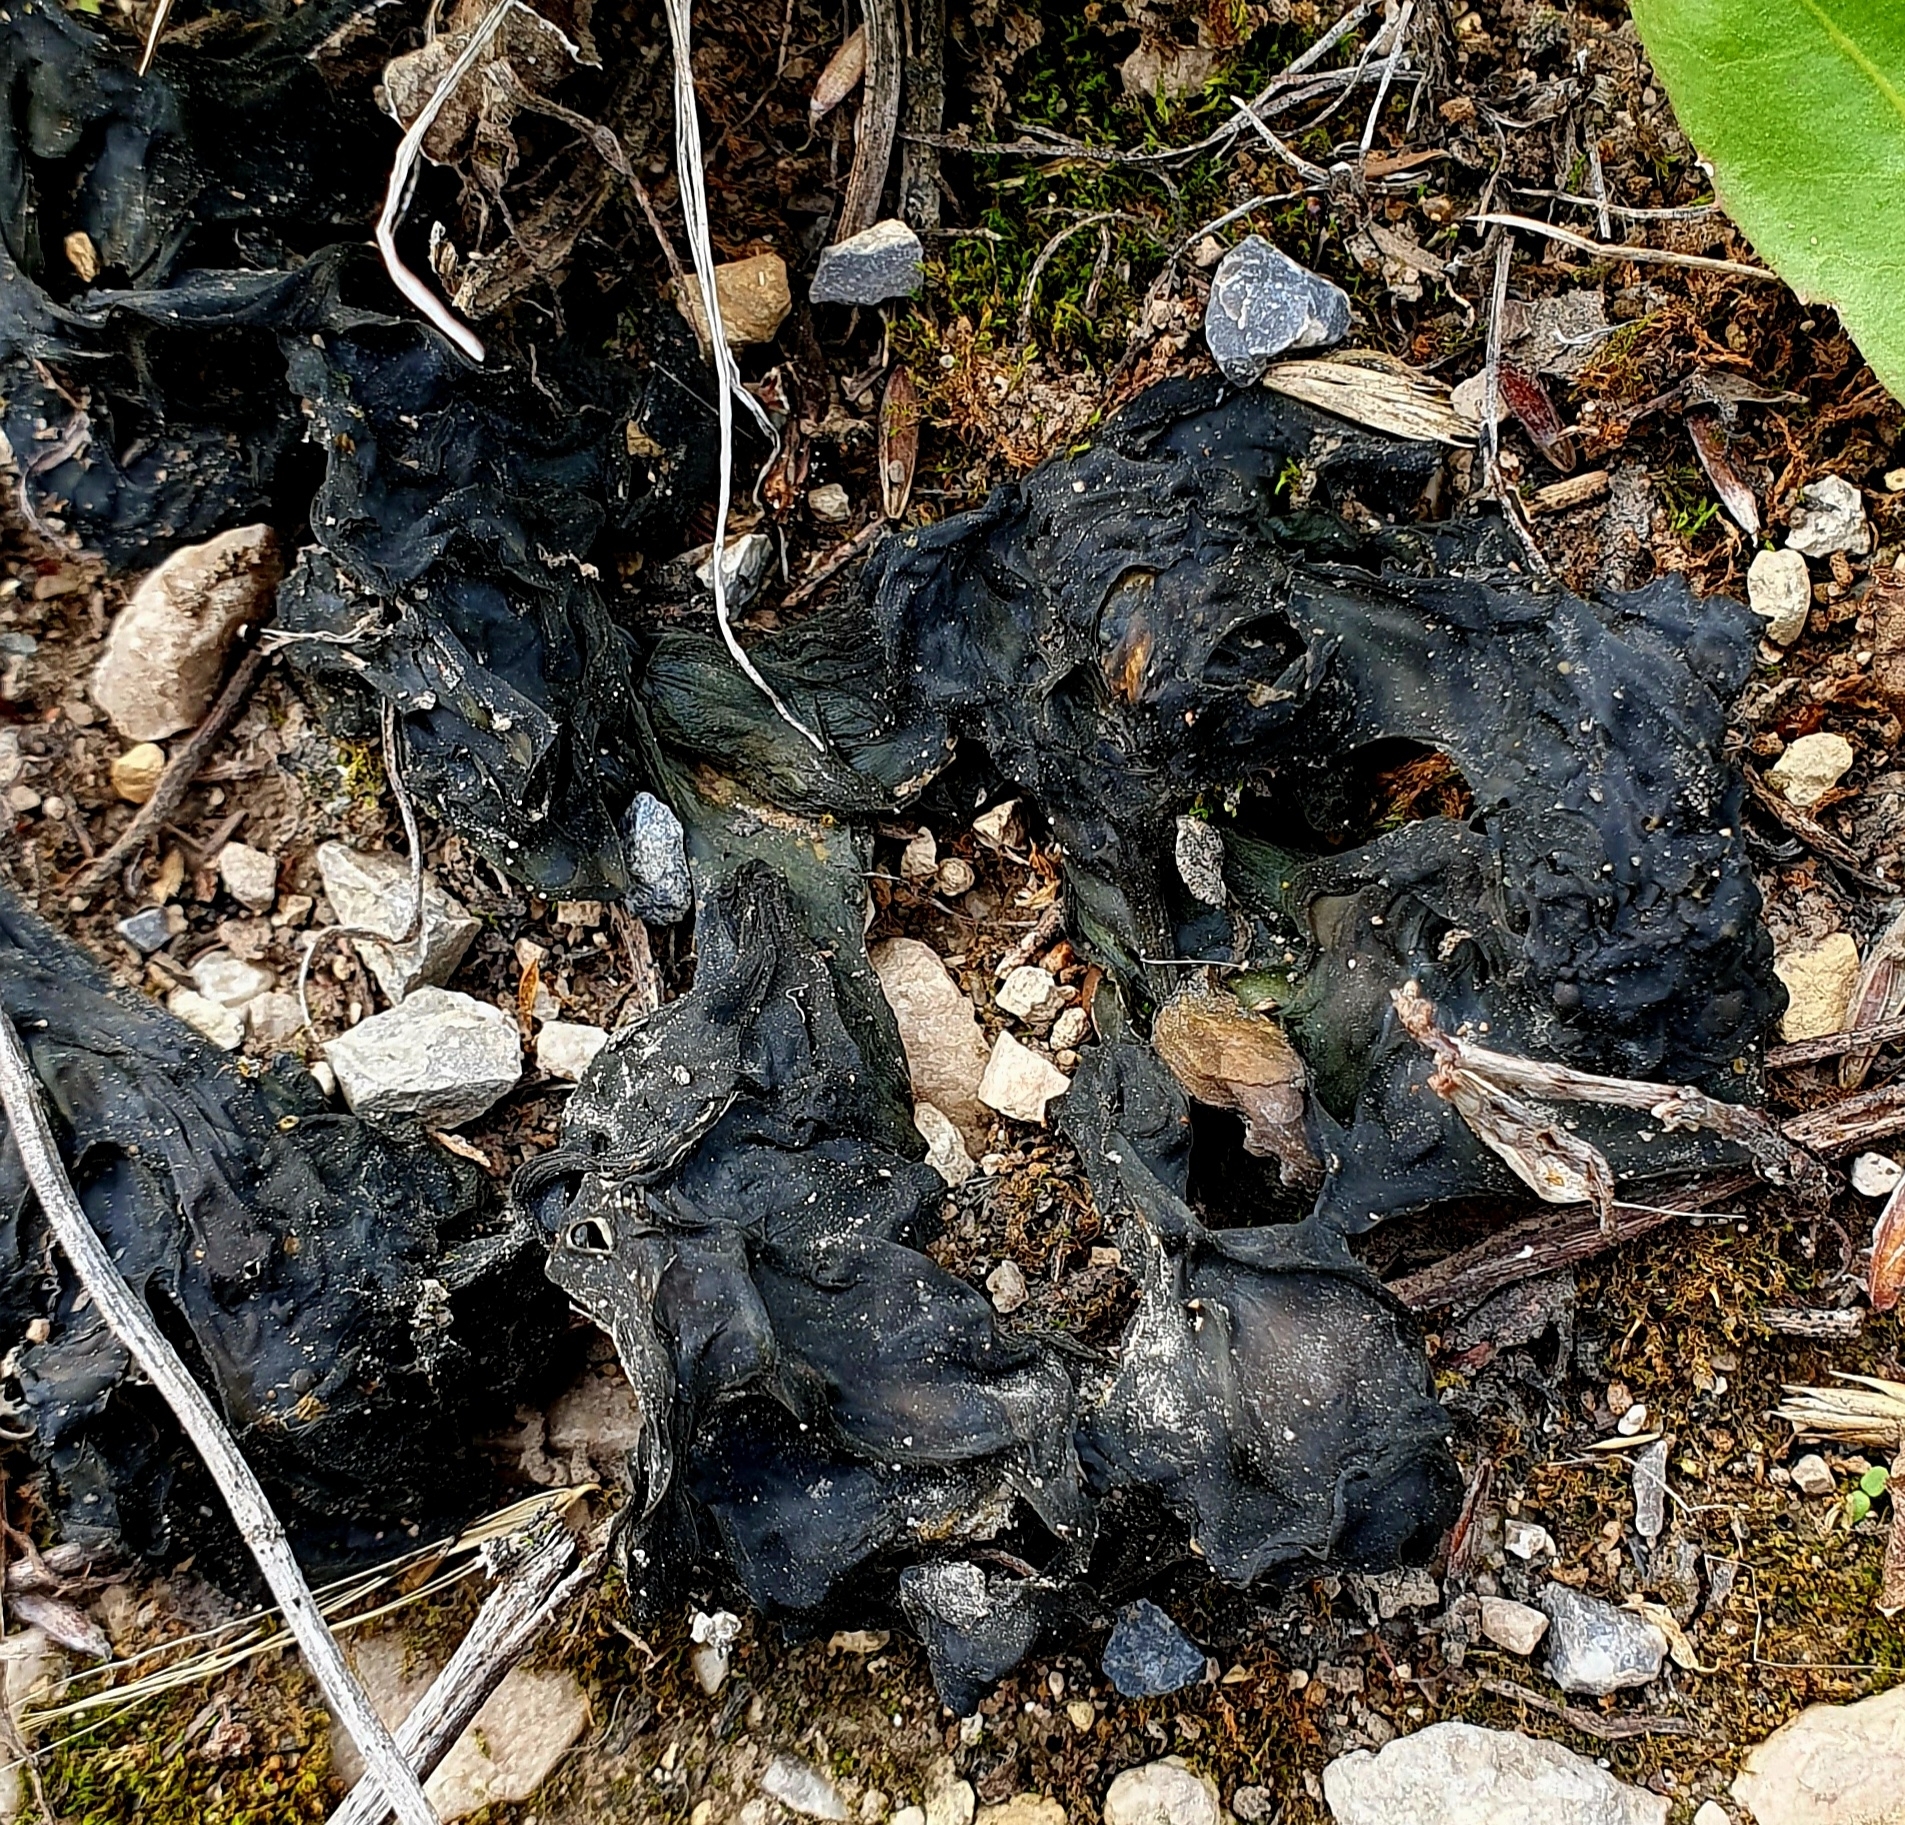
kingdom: Bacteria
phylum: Cyanobacteria
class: Cyanobacteriia
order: Cyanobacteriales
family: Nostocaceae
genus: Nostoc
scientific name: Nostoc commune
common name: Star jelly
